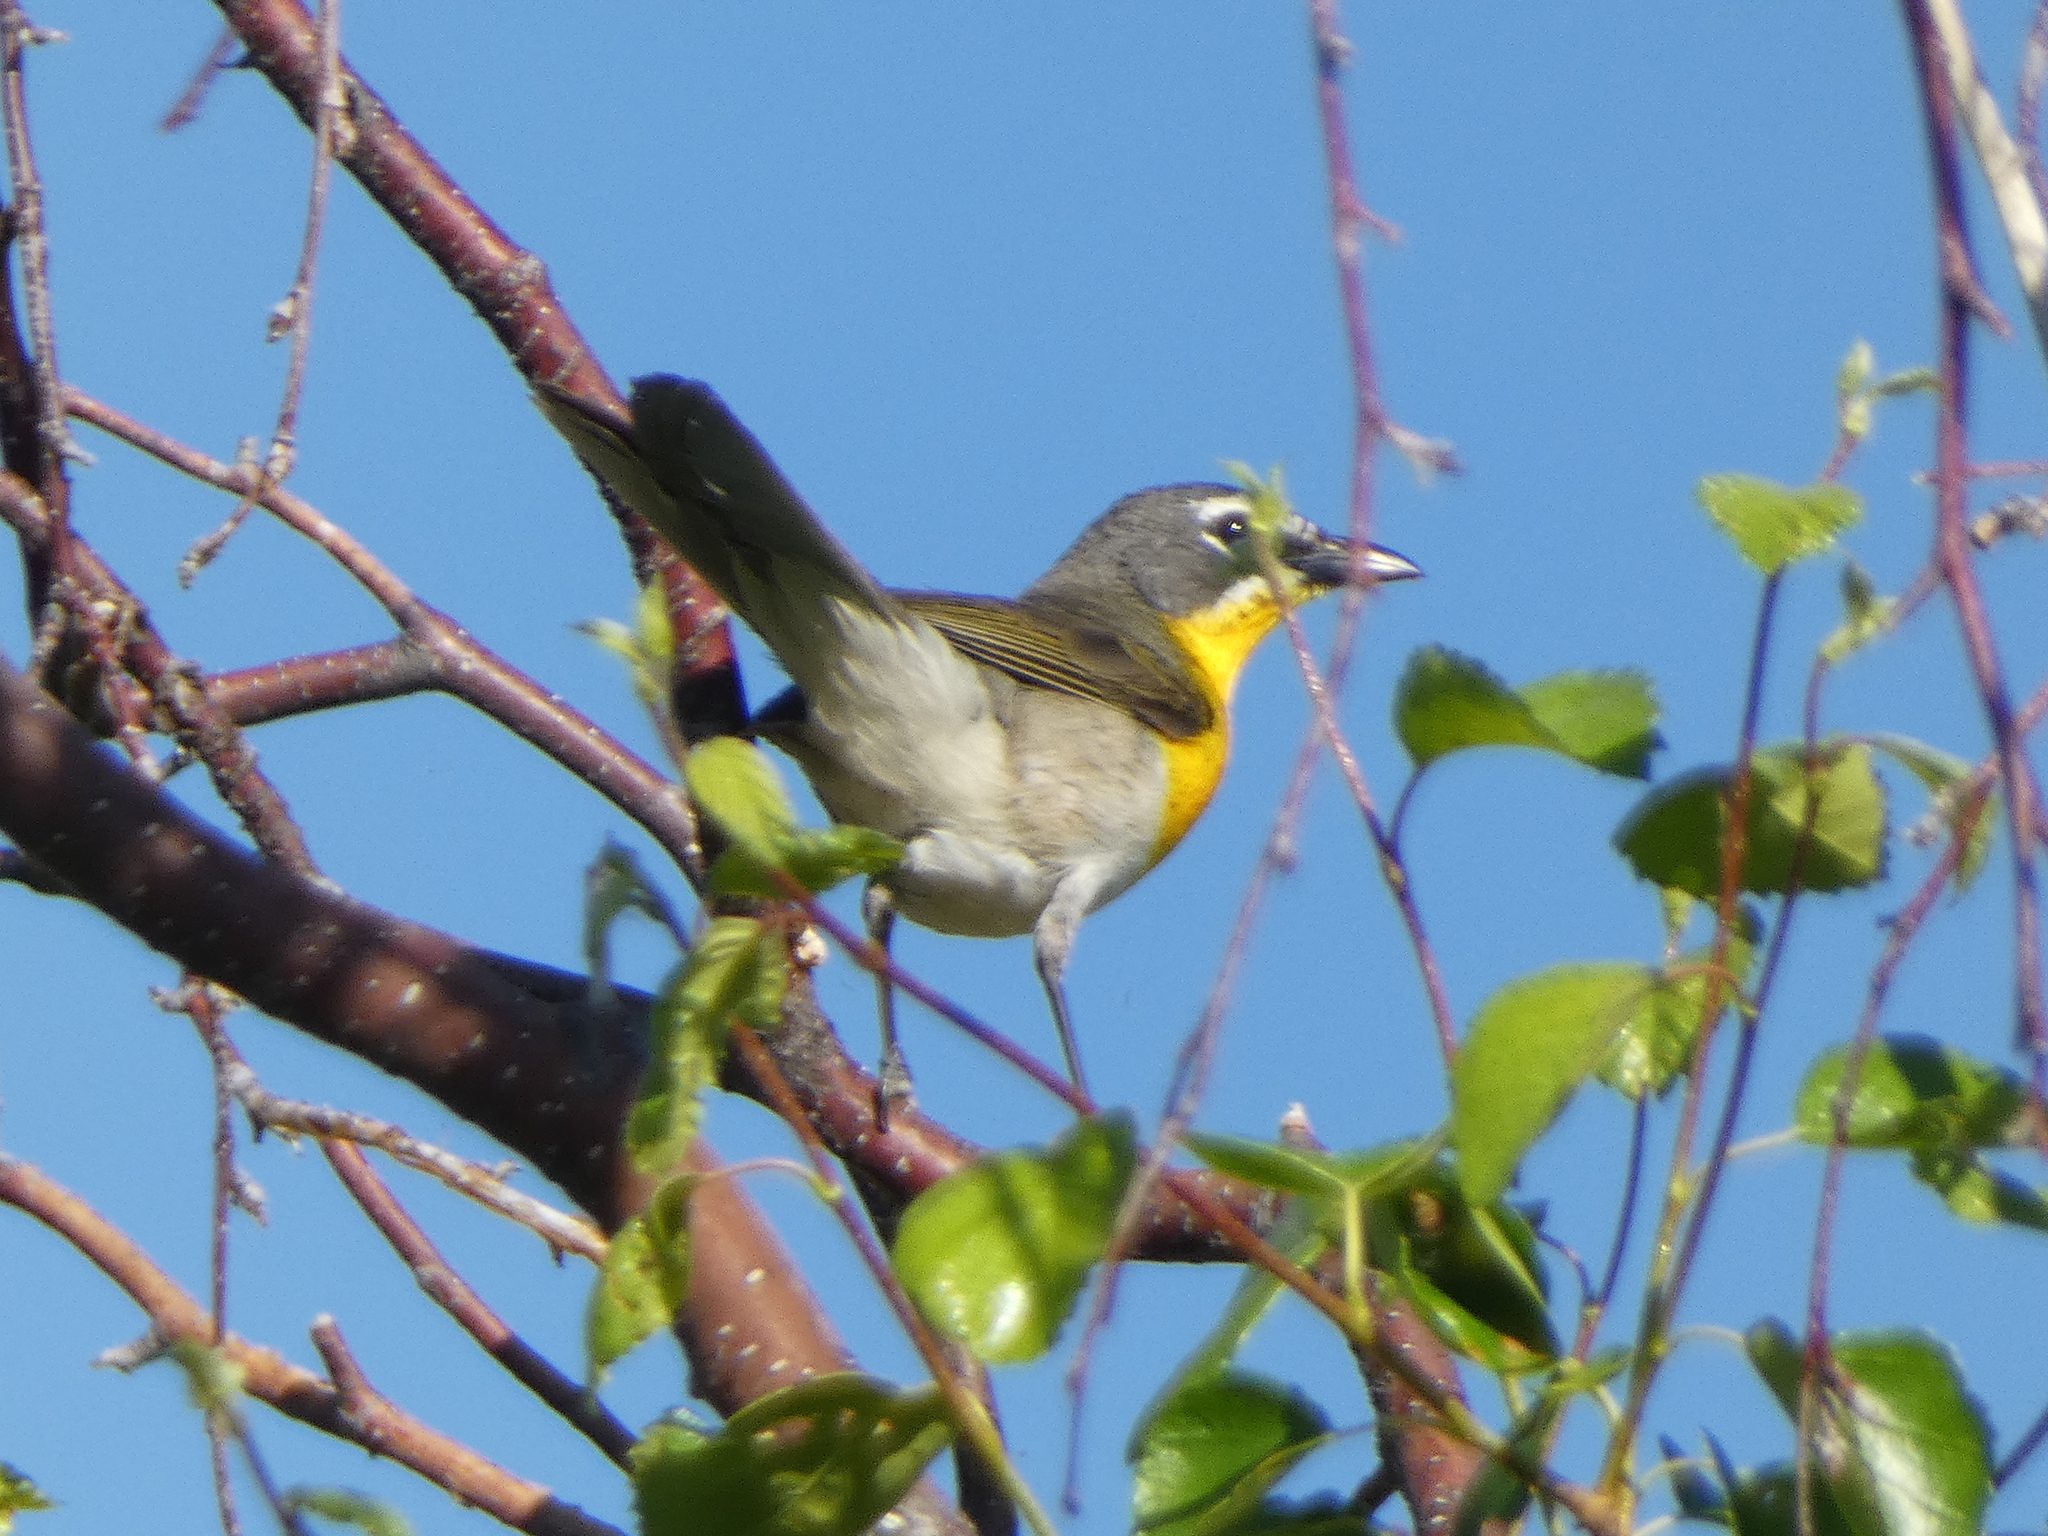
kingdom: Animalia
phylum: Chordata
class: Aves
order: Passeriformes
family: Parulidae
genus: Icteria
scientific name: Icteria virens
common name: Yellow-breasted chat
